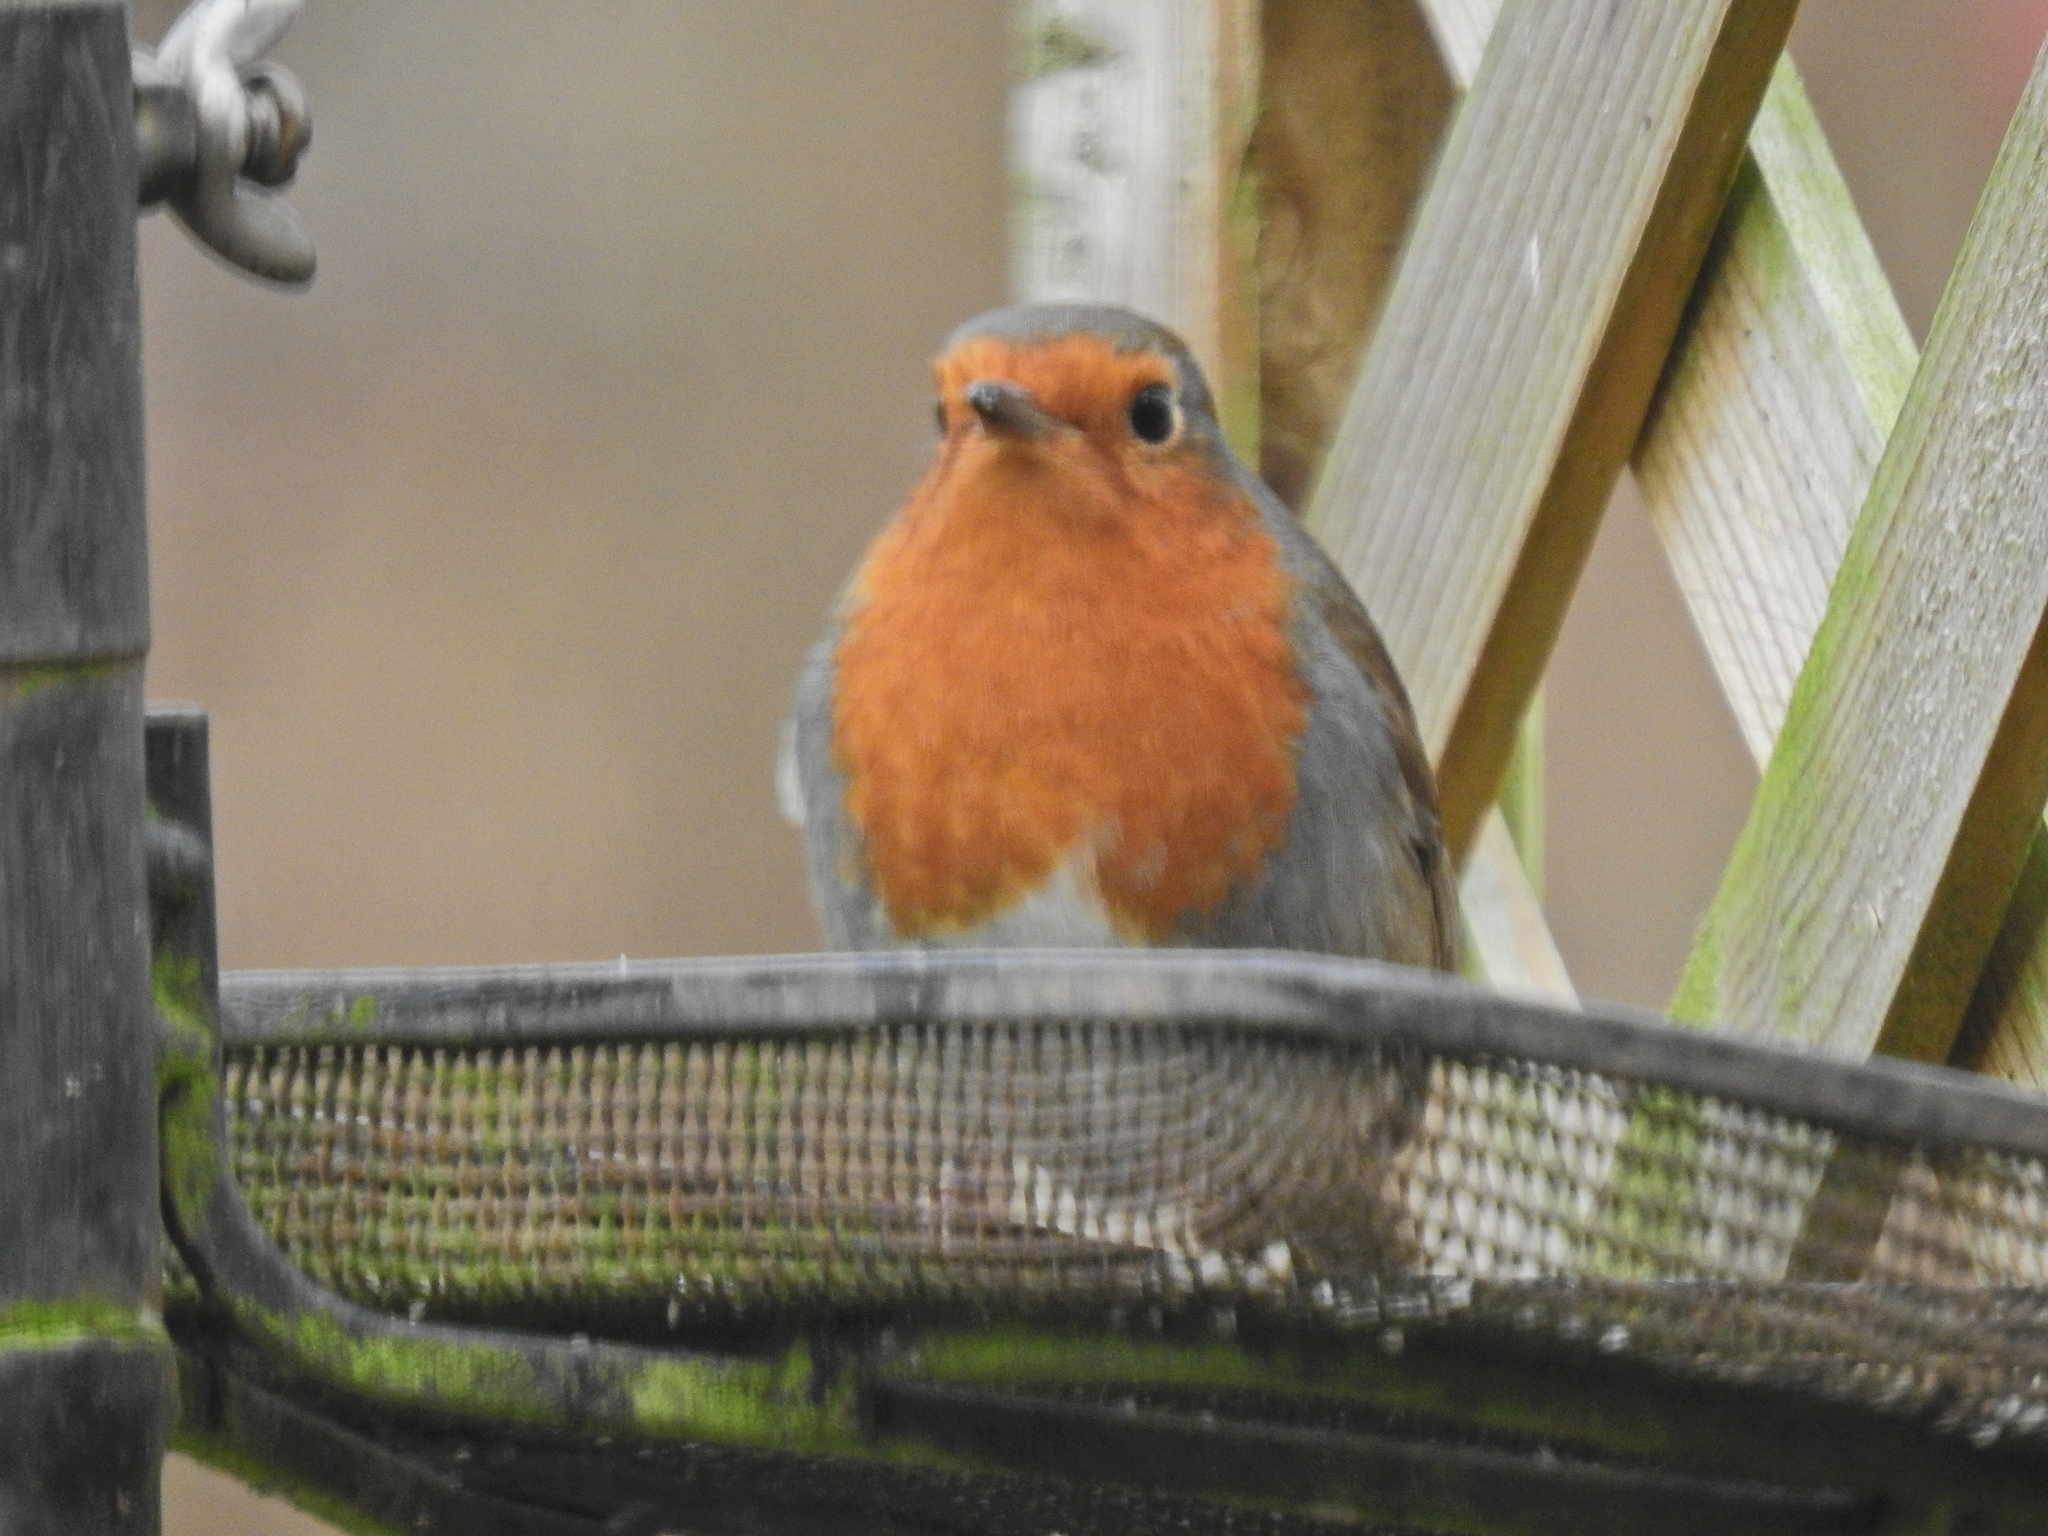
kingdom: Animalia
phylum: Chordata
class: Aves
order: Passeriformes
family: Muscicapidae
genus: Erithacus
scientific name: Erithacus rubecula
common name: European robin
